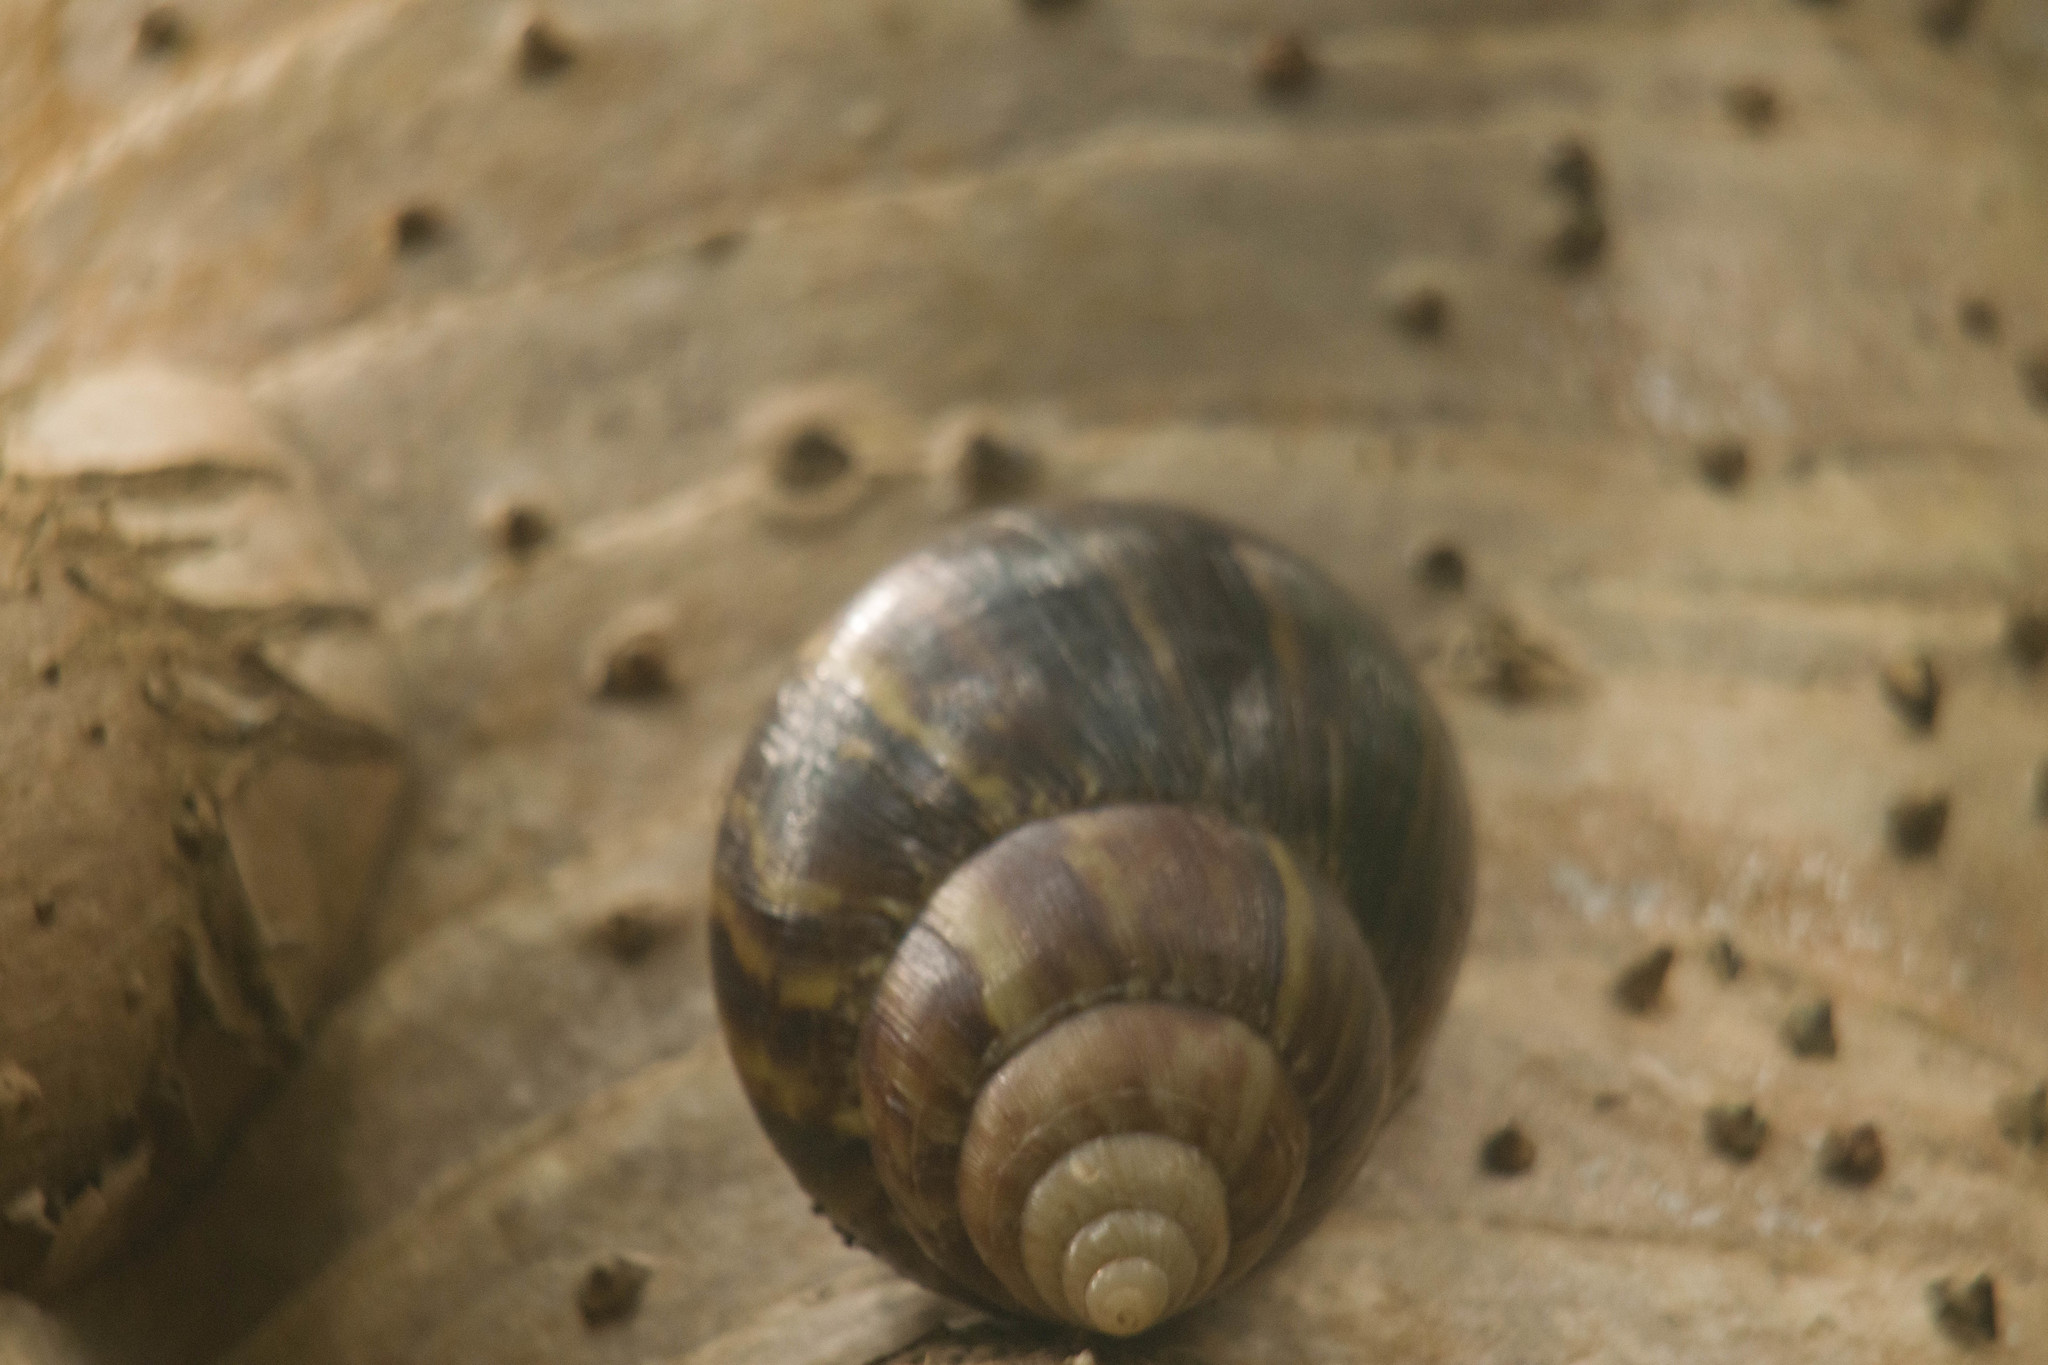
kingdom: Animalia
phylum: Mollusca
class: Gastropoda
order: Stylommatophora
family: Achatinidae
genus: Lissachatina
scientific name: Lissachatina fulica
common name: Giant african snail
